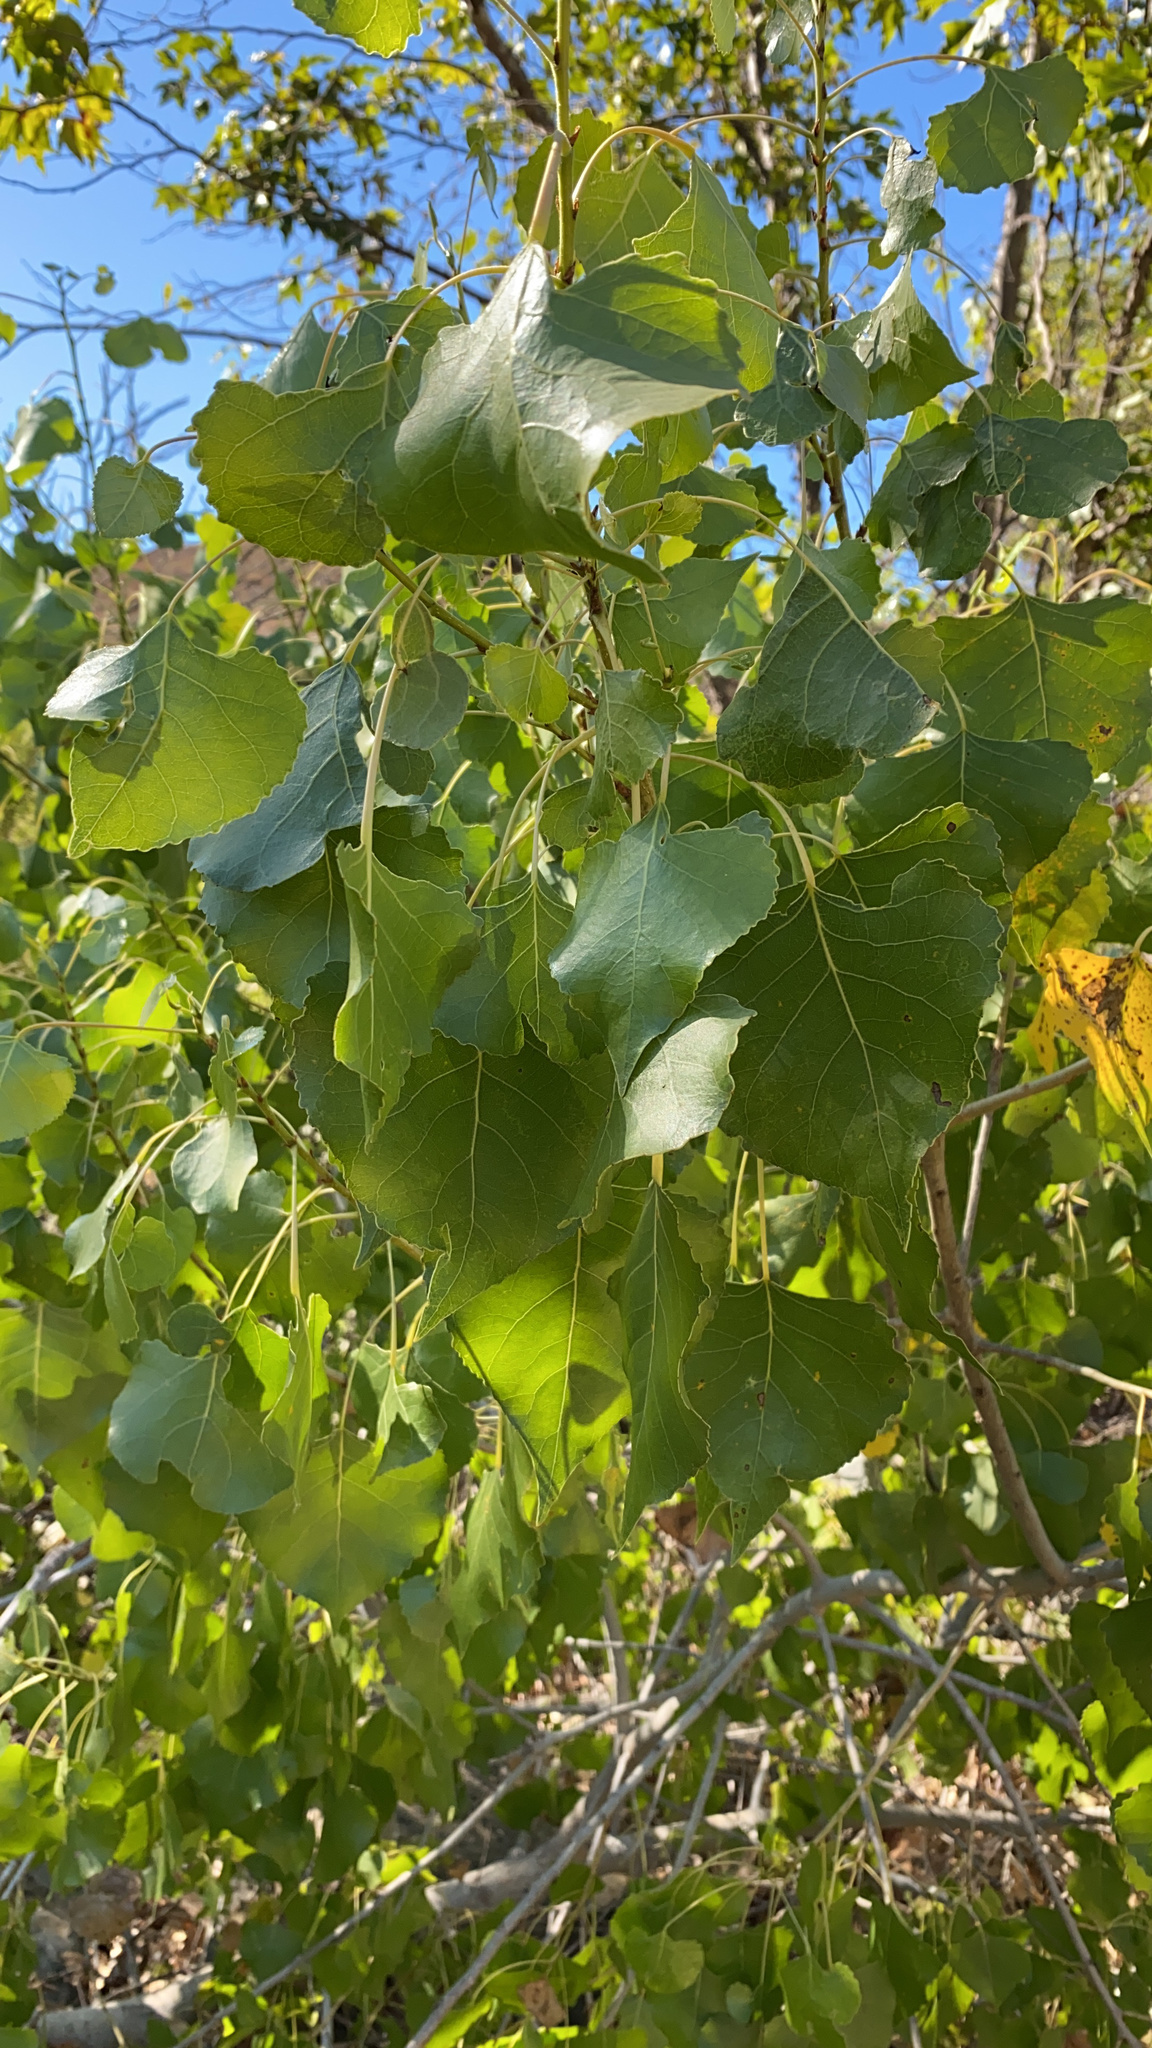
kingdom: Plantae
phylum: Tracheophyta
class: Magnoliopsida
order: Malpighiales
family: Salicaceae
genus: Populus
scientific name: Populus fremontii
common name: Fremont's cottonwood
